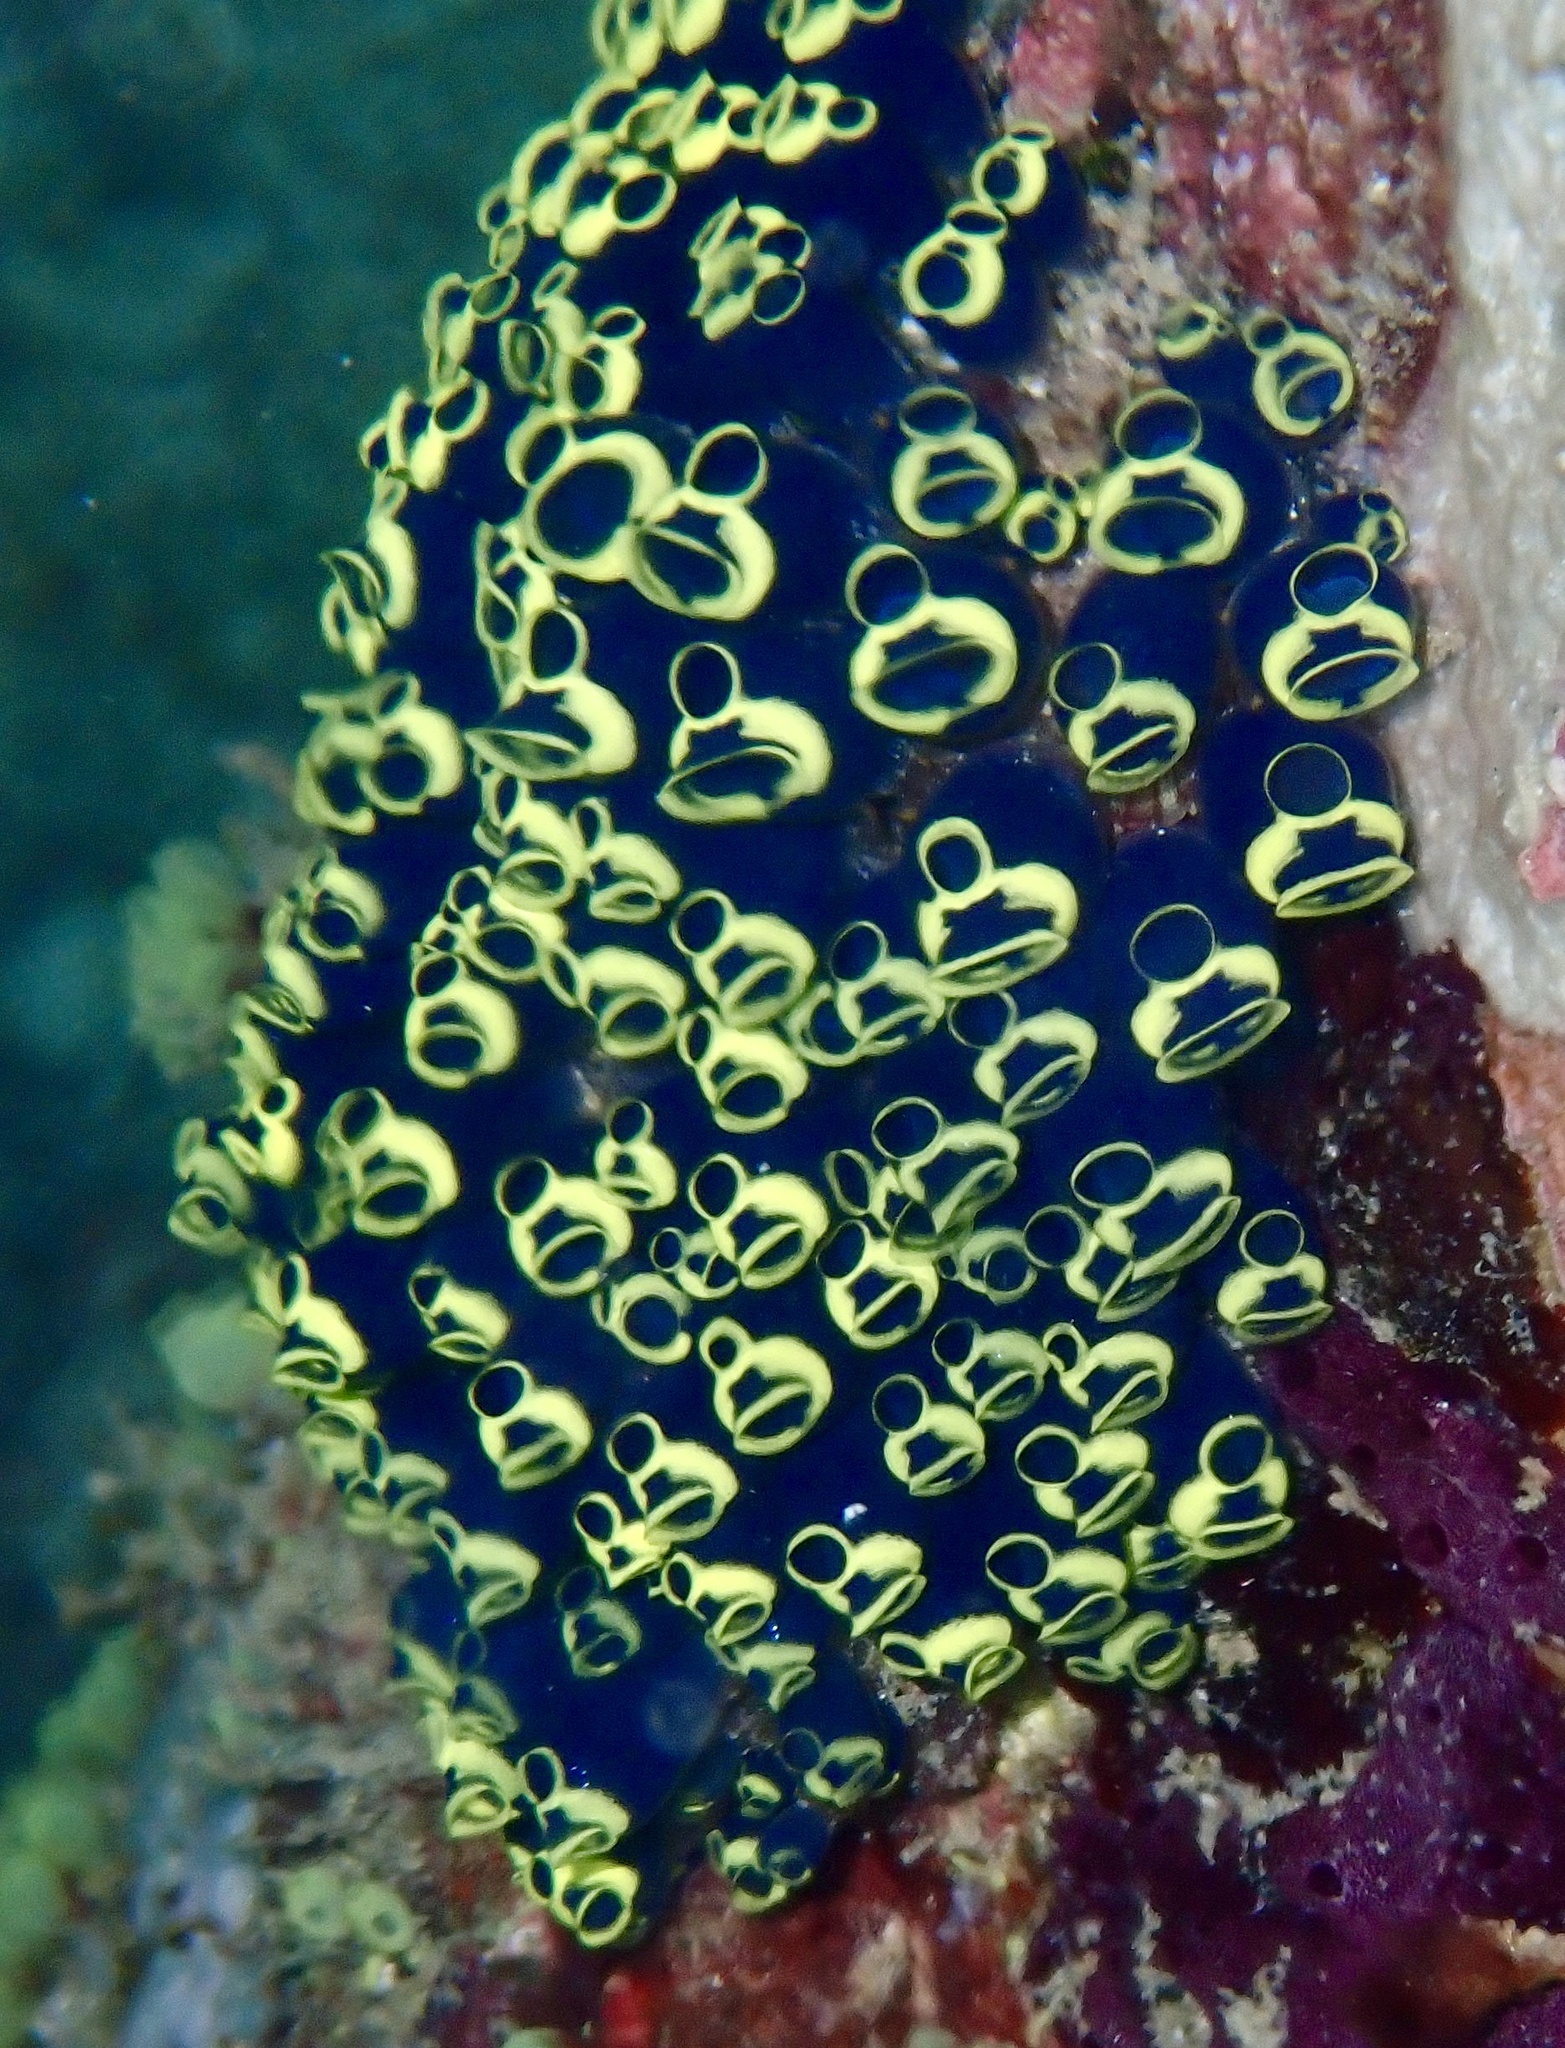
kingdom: Animalia
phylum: Chordata
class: Ascidiacea
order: Aplousobranchia
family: Clavelinidae
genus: Clavelina
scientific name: Clavelina robusta
